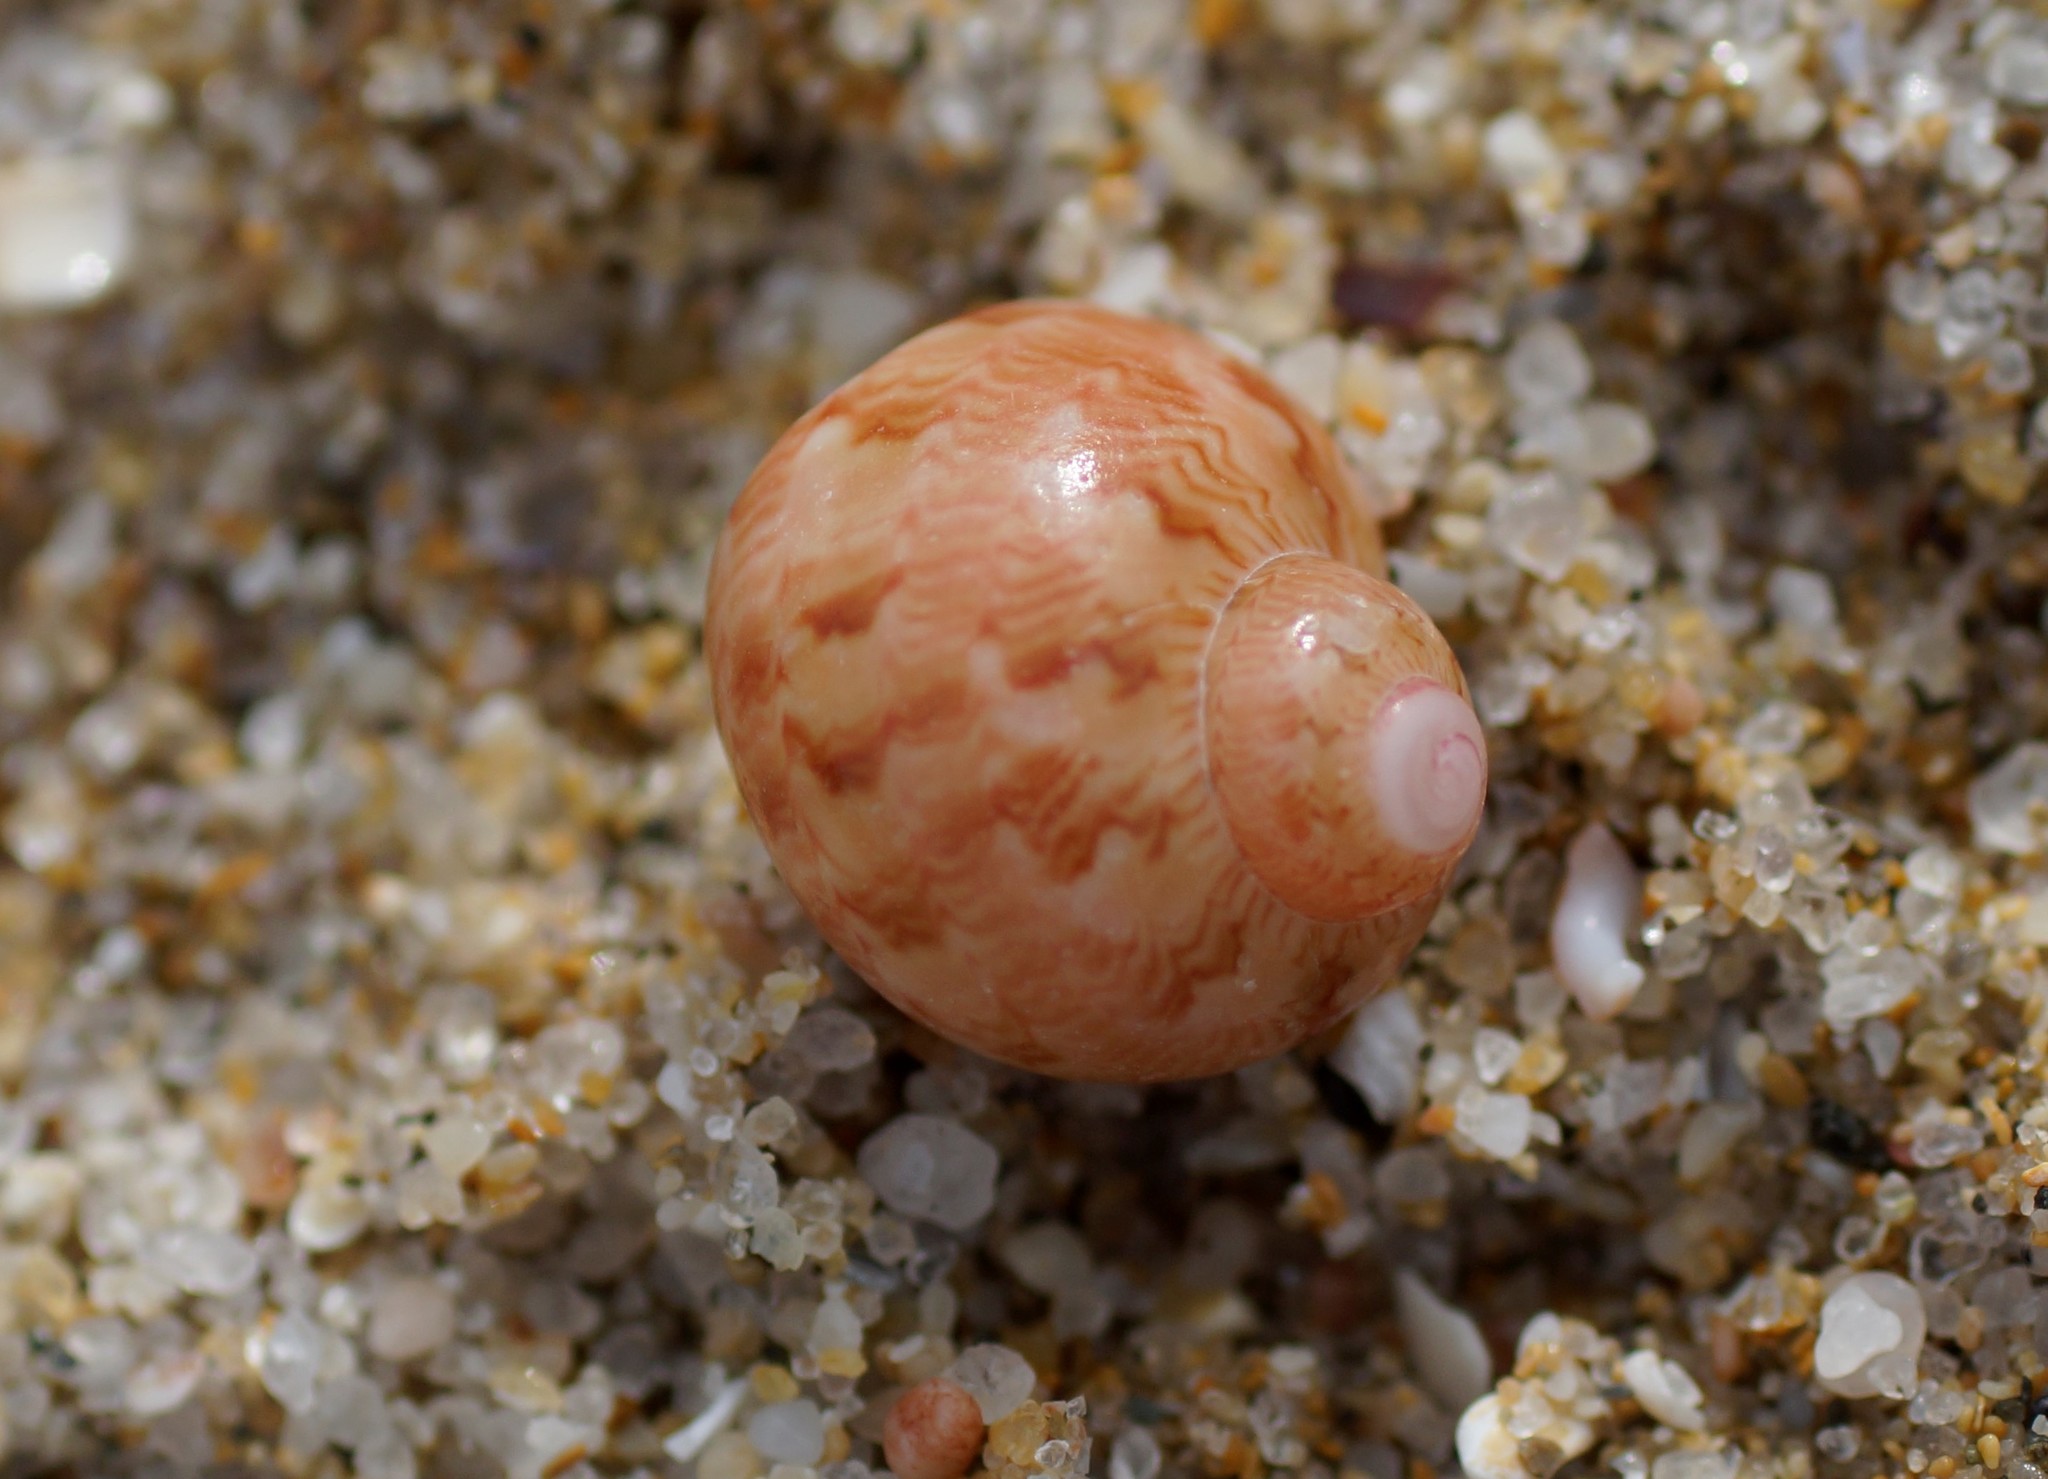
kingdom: Animalia
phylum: Mollusca
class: Gastropoda
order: Trochida
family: Phasianellidae
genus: Phasianella
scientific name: Phasianella ventricosa
